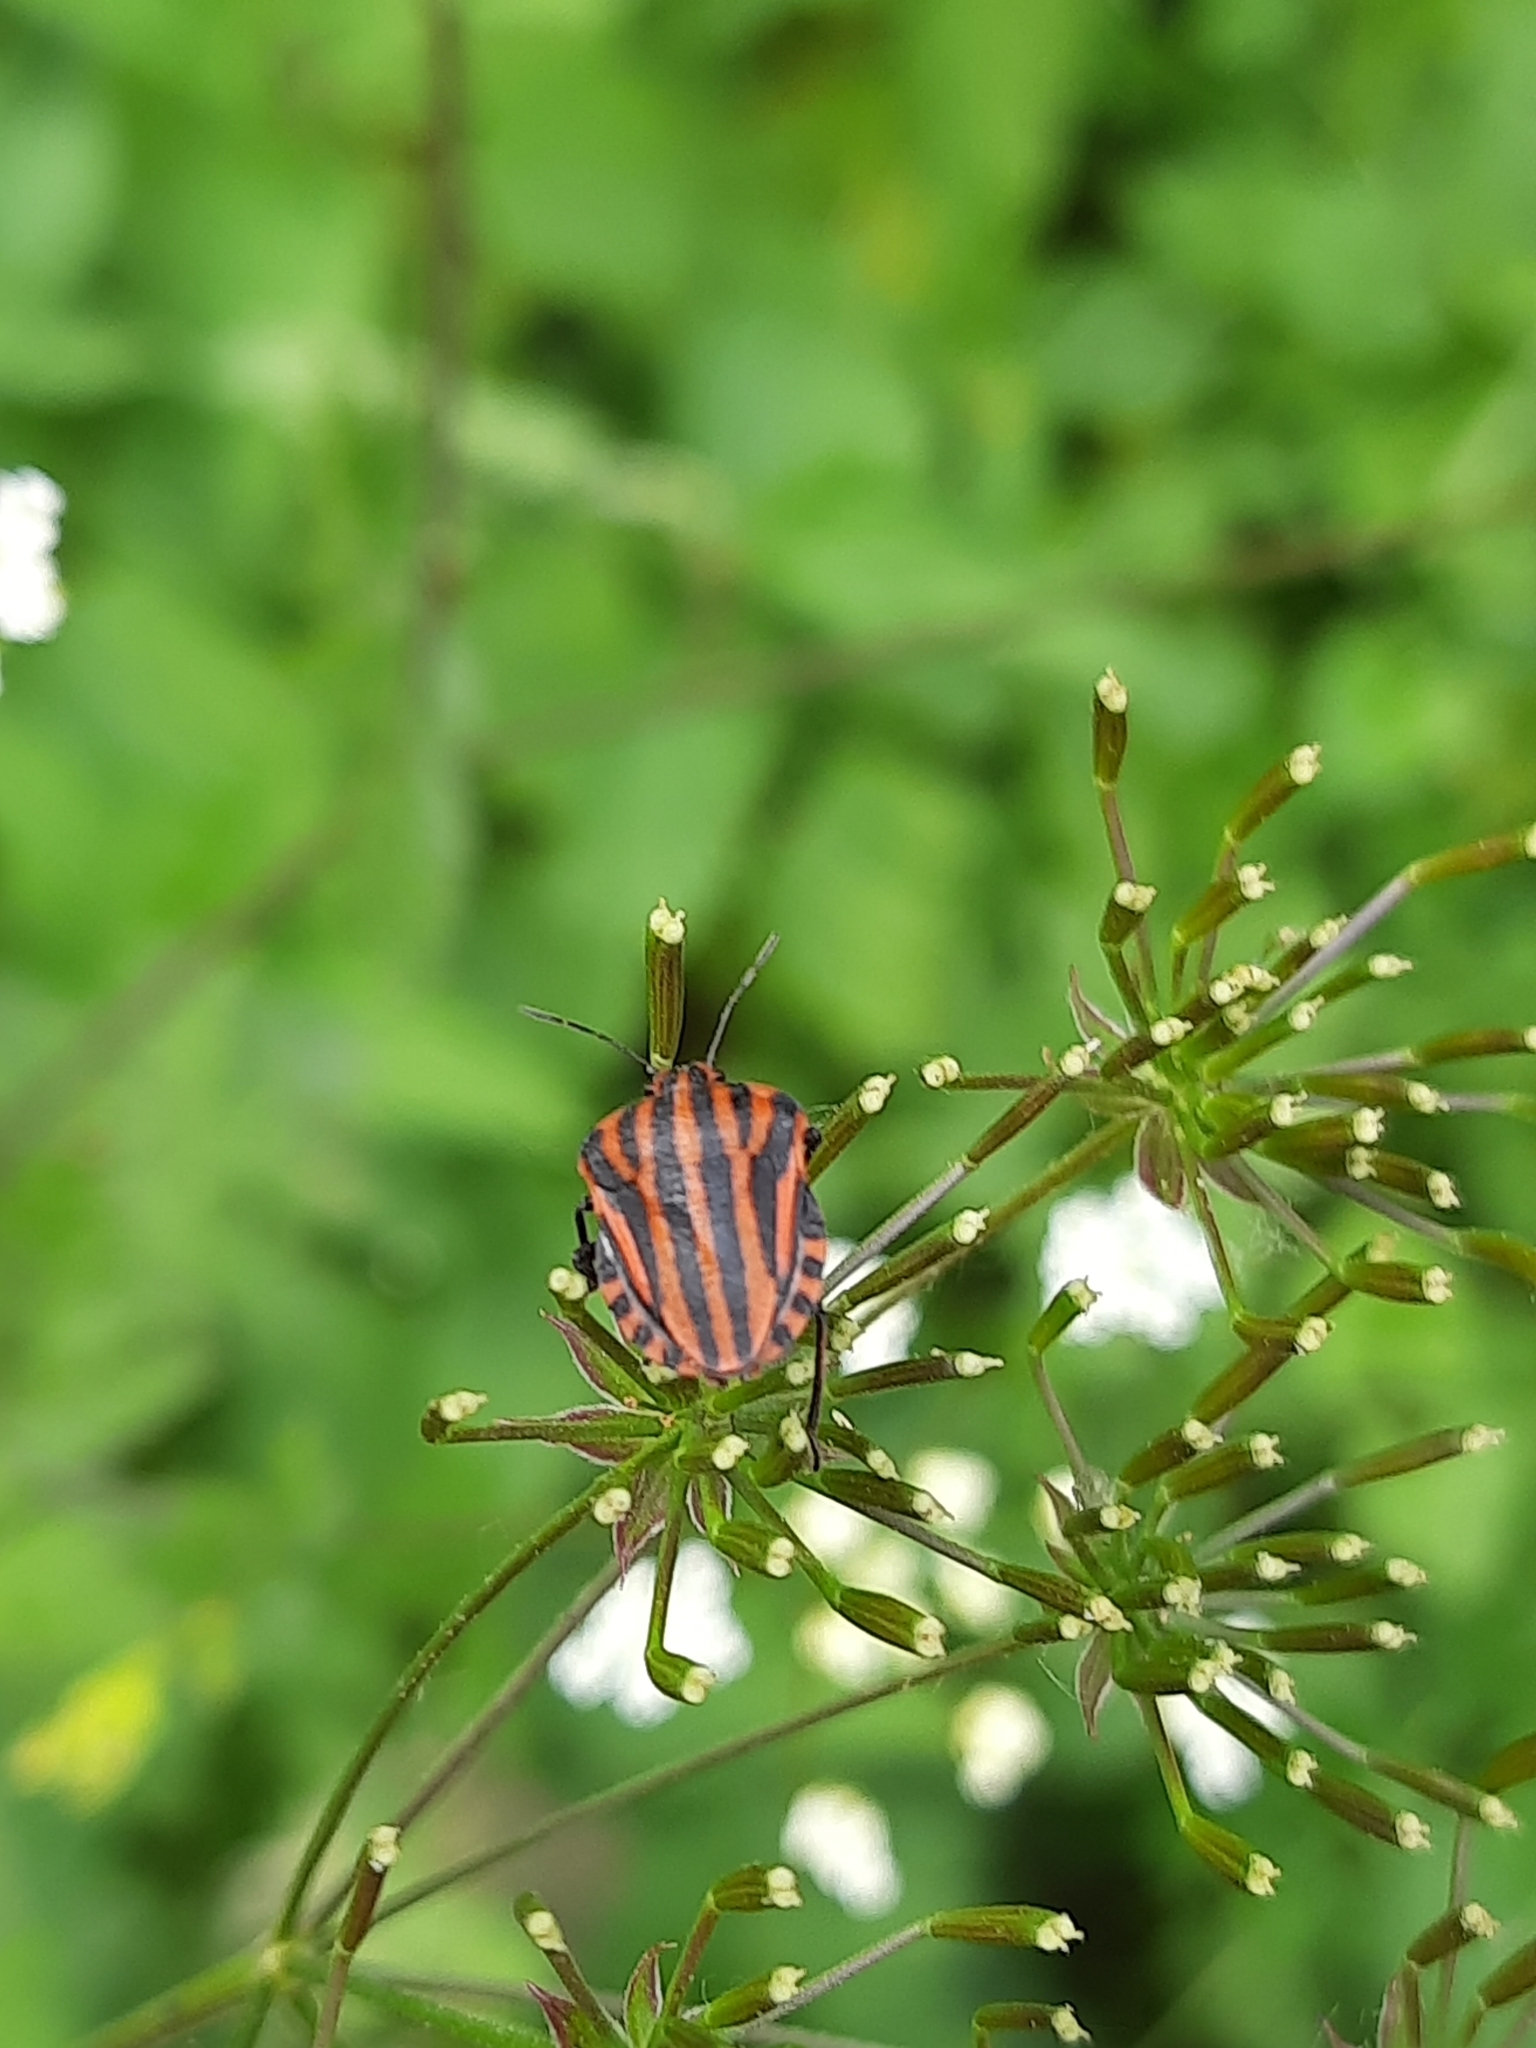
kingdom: Animalia
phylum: Arthropoda
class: Insecta
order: Hemiptera
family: Pentatomidae
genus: Graphosoma
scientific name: Graphosoma italicum
